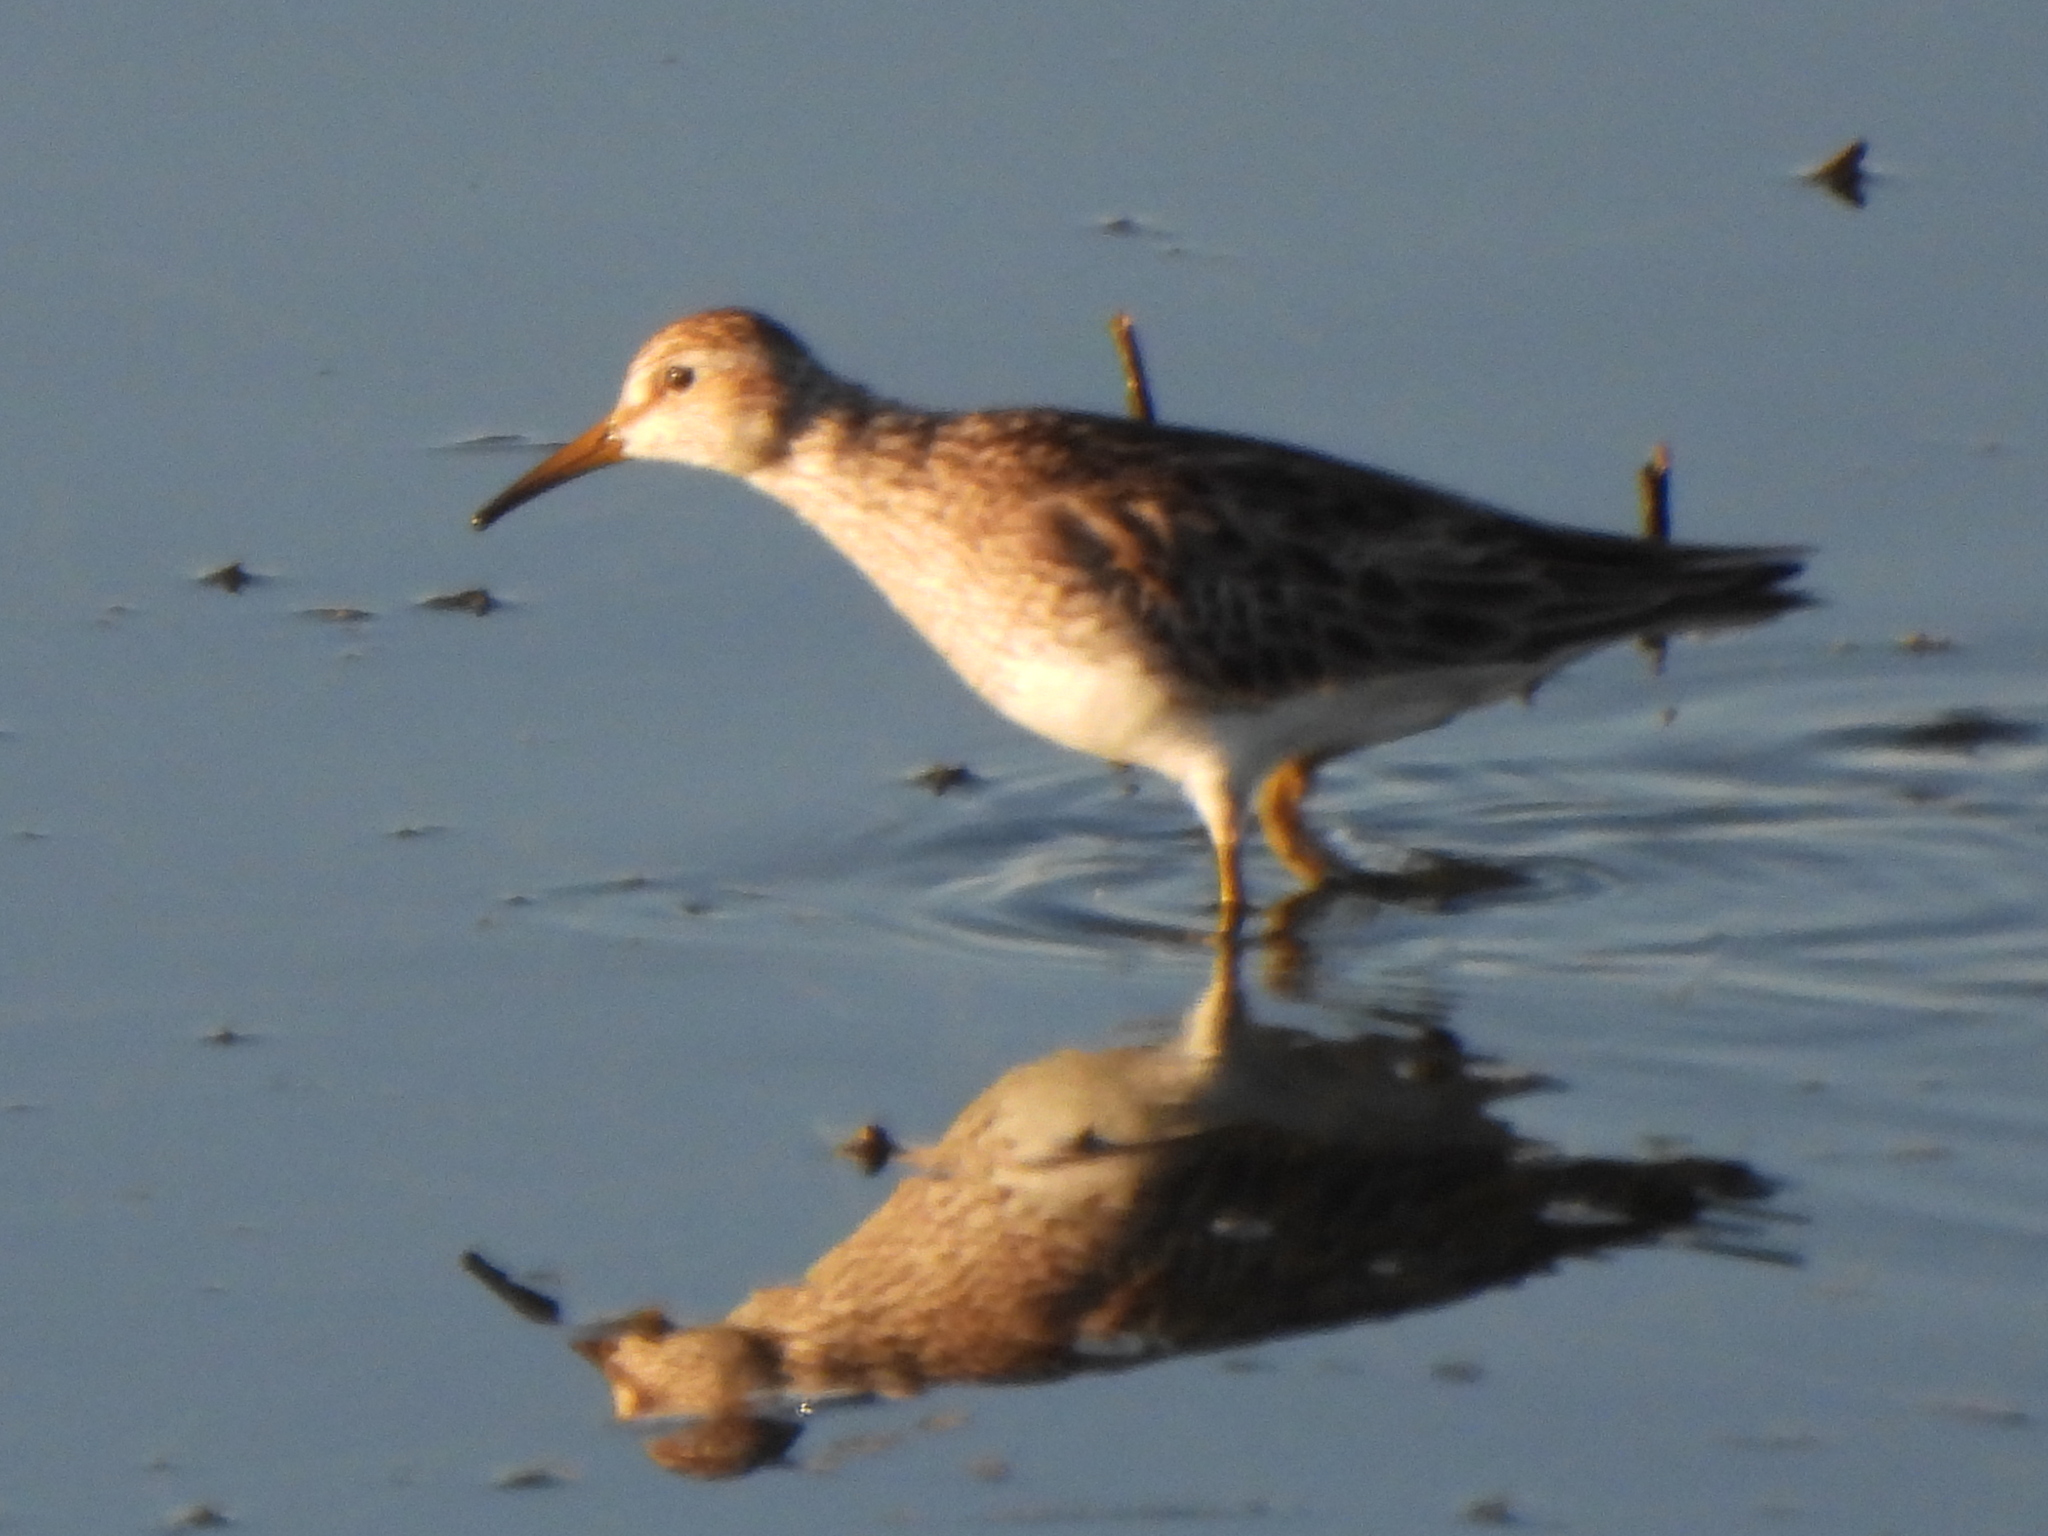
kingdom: Animalia
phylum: Chordata
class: Aves
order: Charadriiformes
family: Scolopacidae
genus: Calidris
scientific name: Calidris melanotos
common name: Pectoral sandpiper
